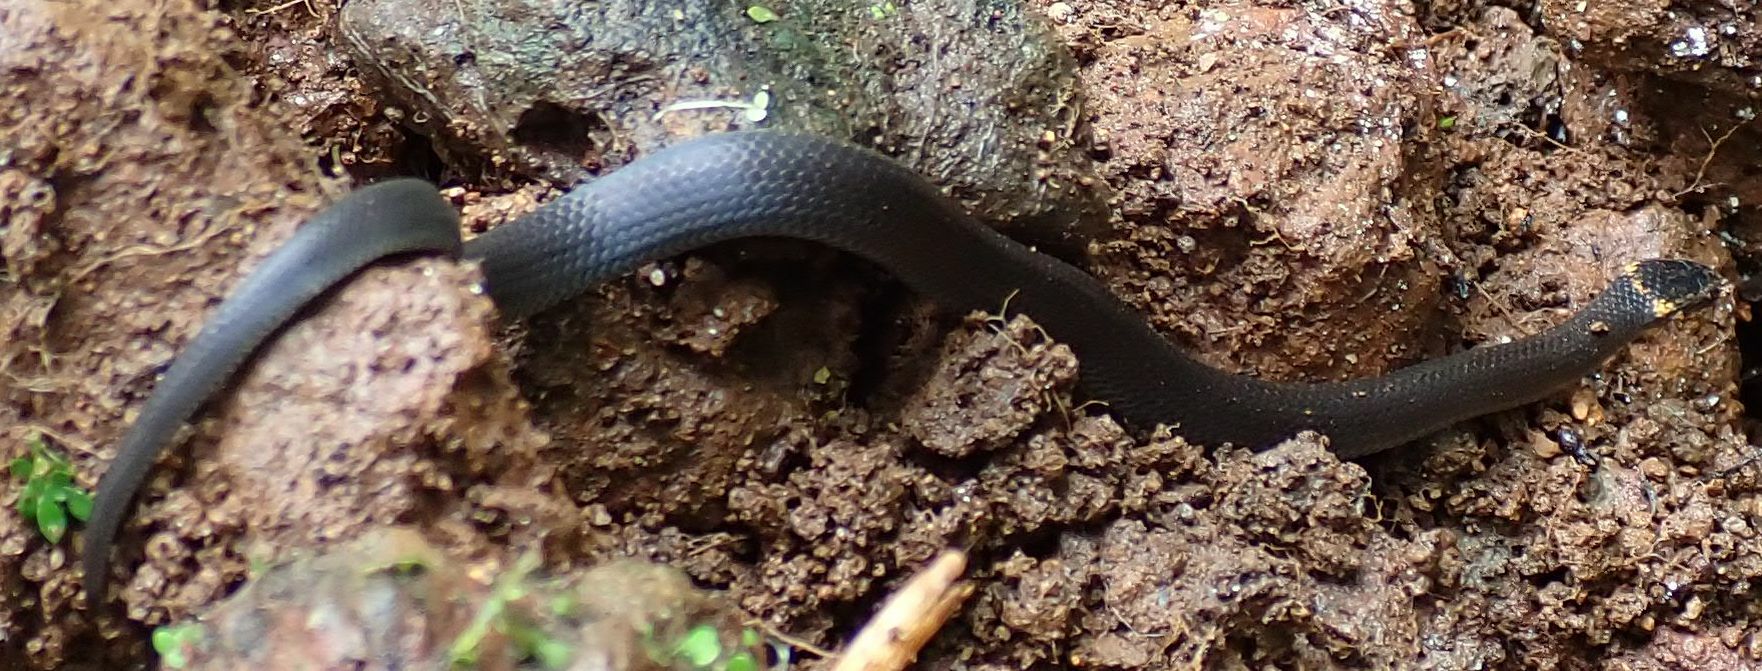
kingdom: Animalia
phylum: Chordata
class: Squamata
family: Elapidae
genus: Cacophis
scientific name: Cacophis churchilli
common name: Northern dward-crowned snake
